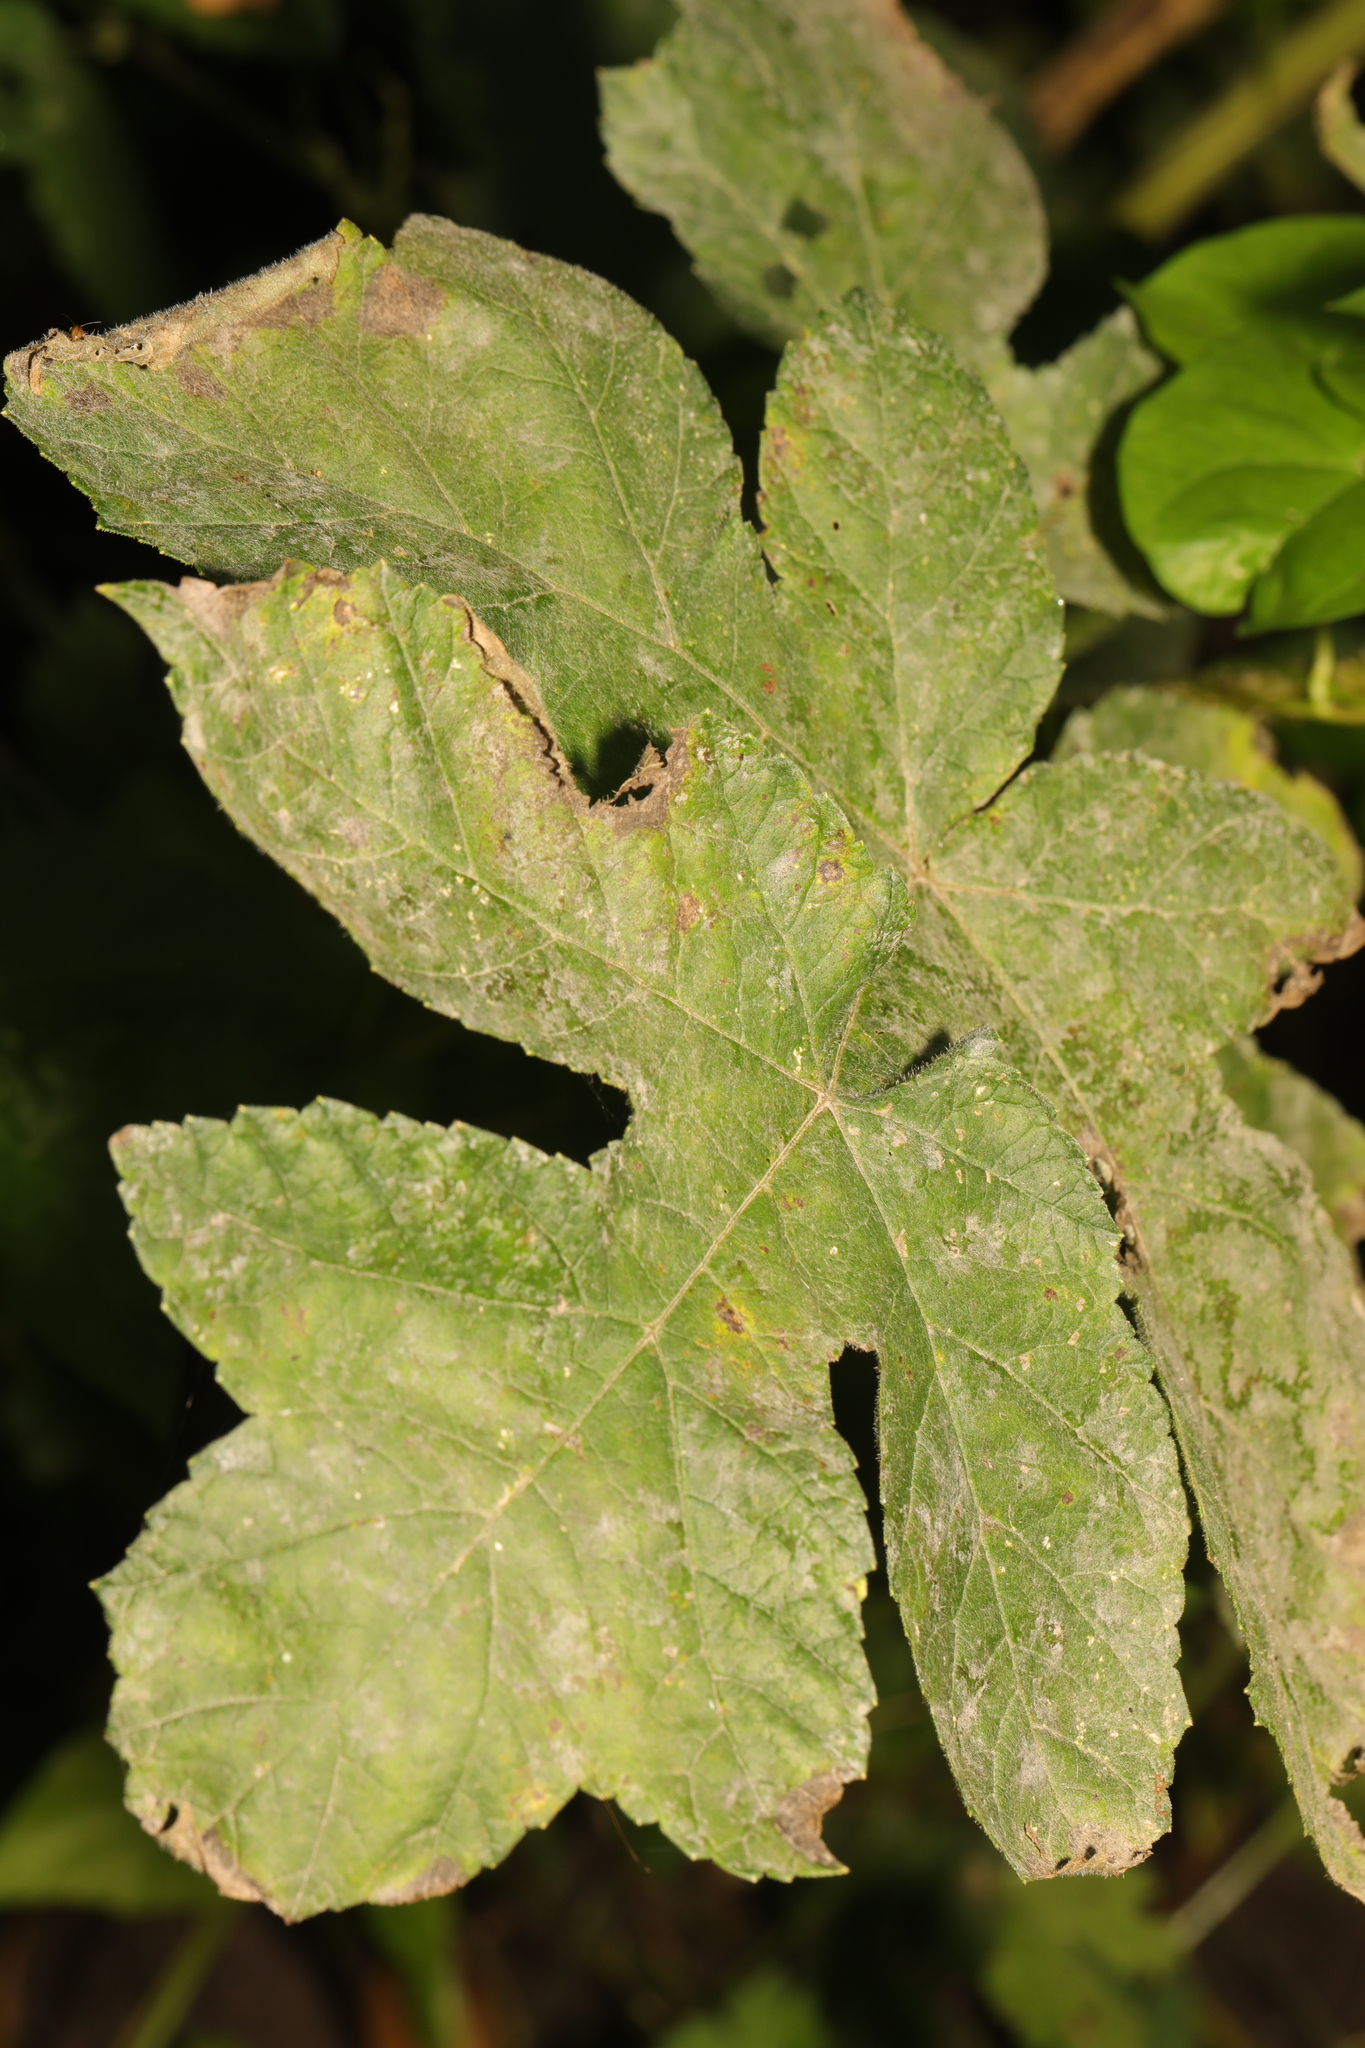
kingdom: Fungi
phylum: Ascomycota
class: Leotiomycetes
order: Helotiales
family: Erysiphaceae
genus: Erysiphe
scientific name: Erysiphe heraclei
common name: Umbellifer mildew
